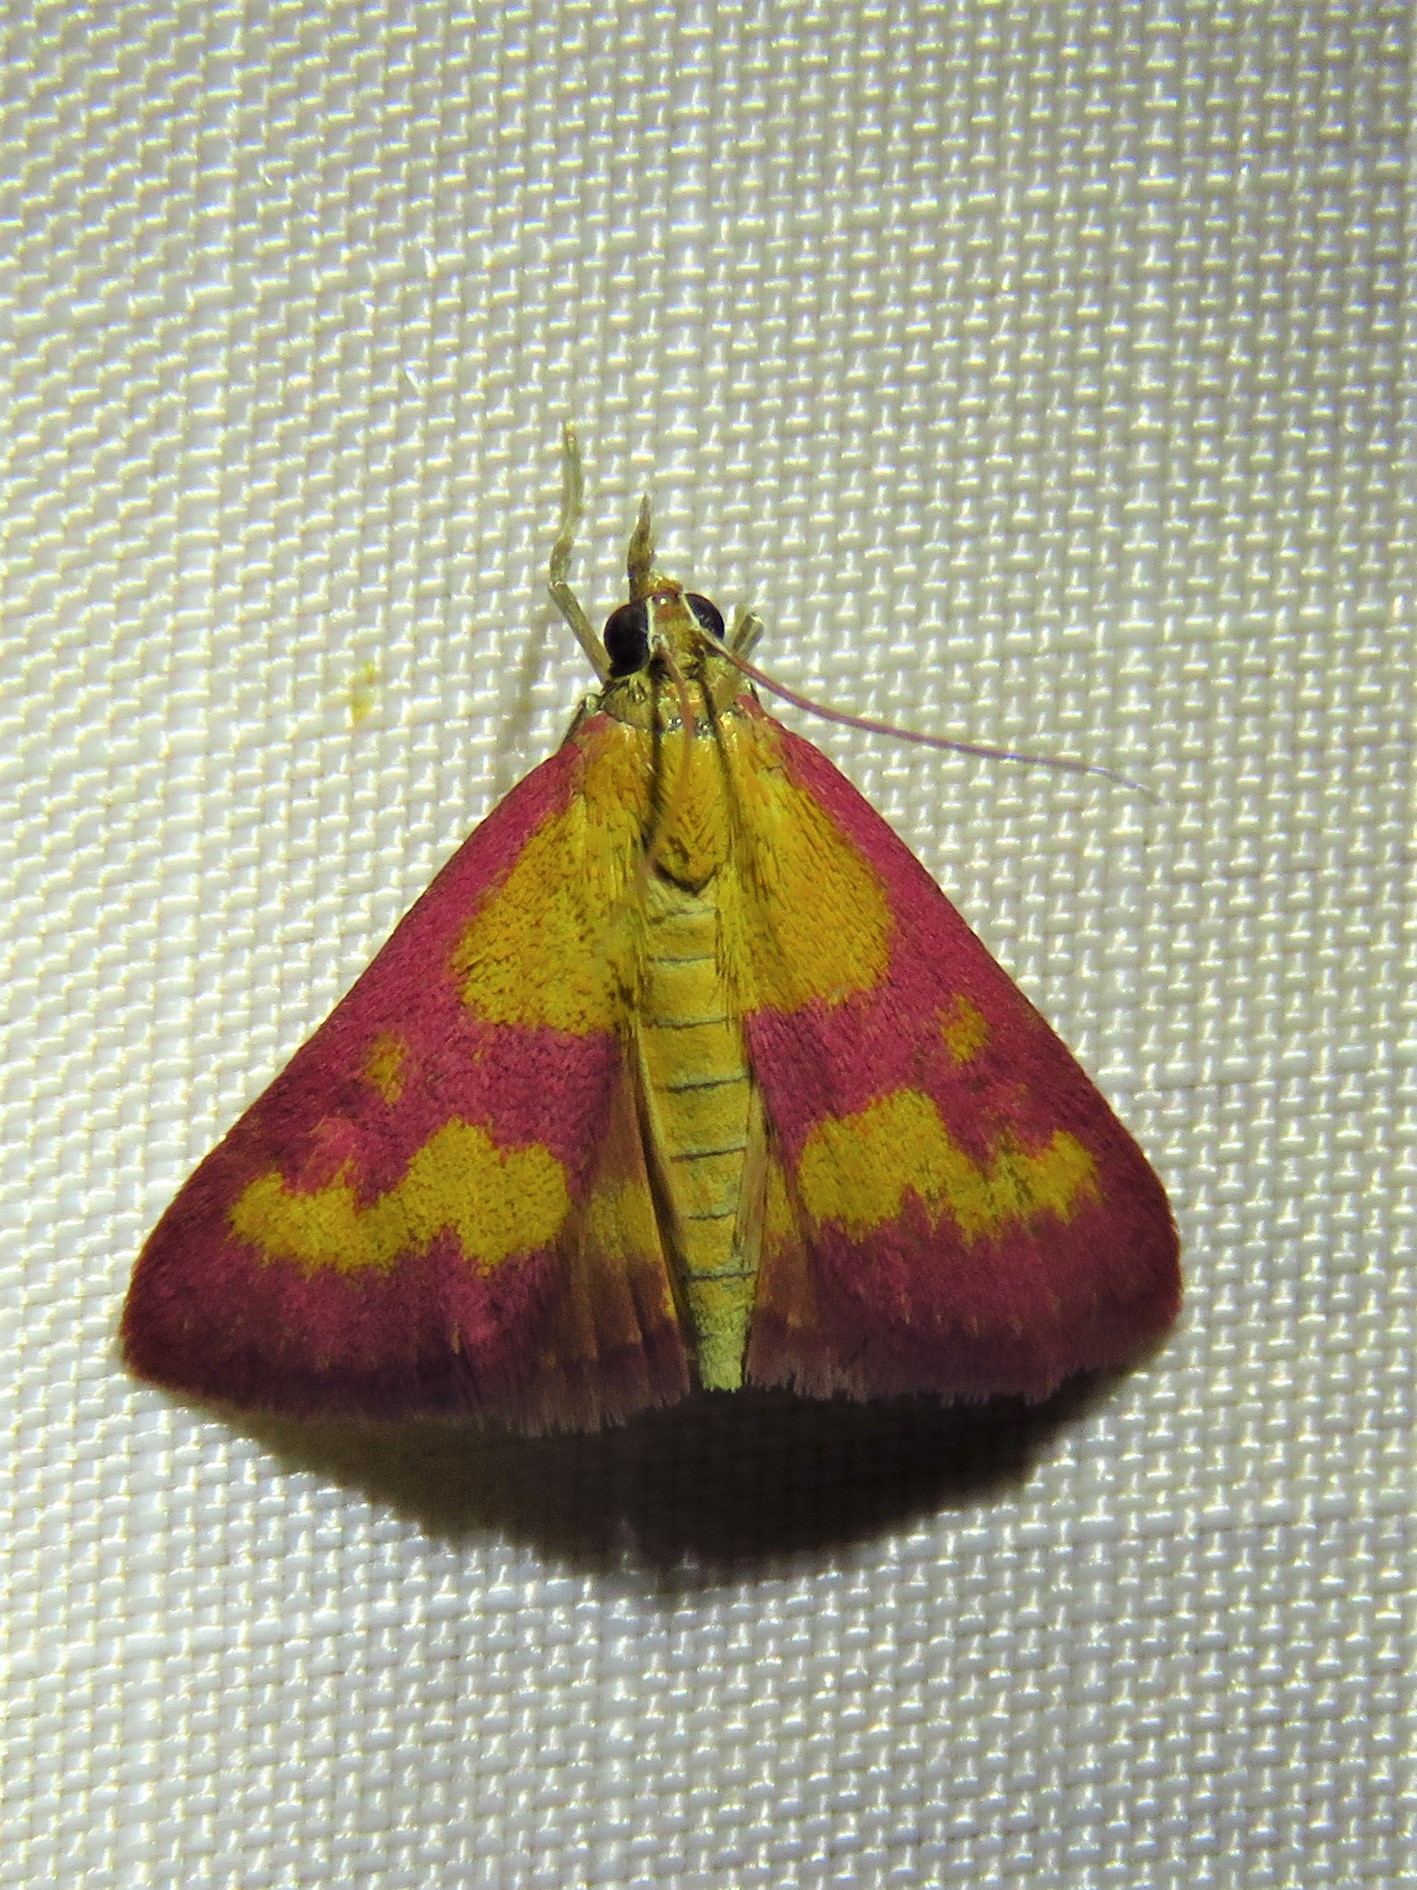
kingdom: Animalia
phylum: Arthropoda
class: Insecta
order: Lepidoptera
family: Crambidae
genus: Pyrausta
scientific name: Pyrausta laticlavia
